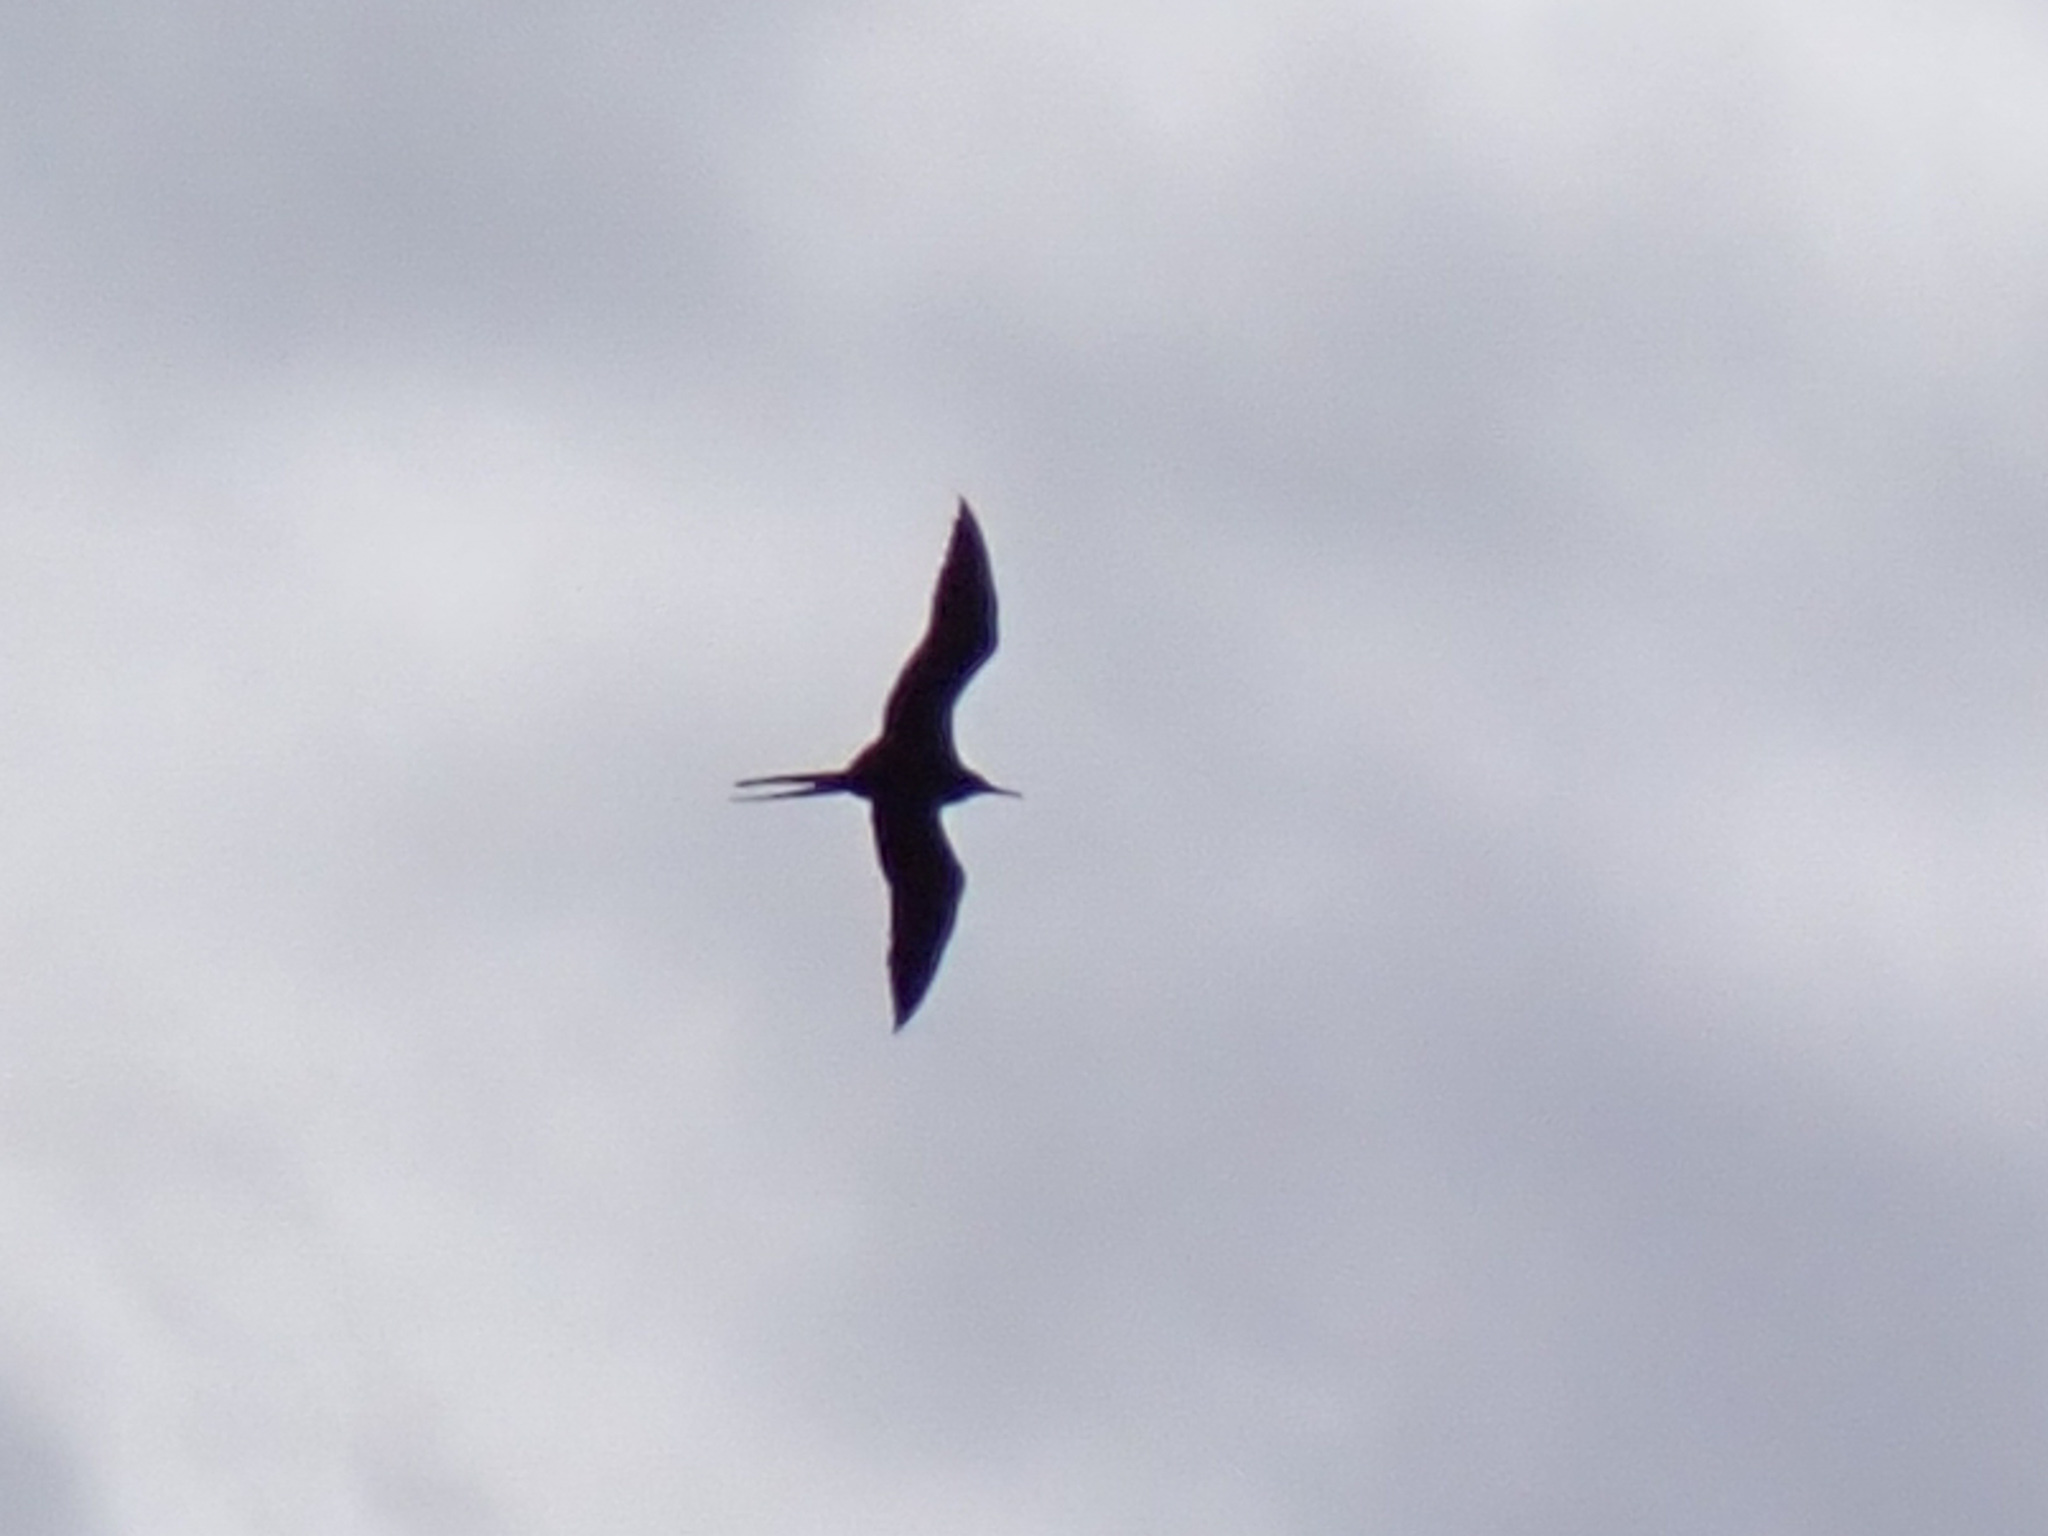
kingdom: Animalia
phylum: Chordata
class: Aves
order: Suliformes
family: Fregatidae
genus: Fregata
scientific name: Fregata minor
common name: Great frigatebird
